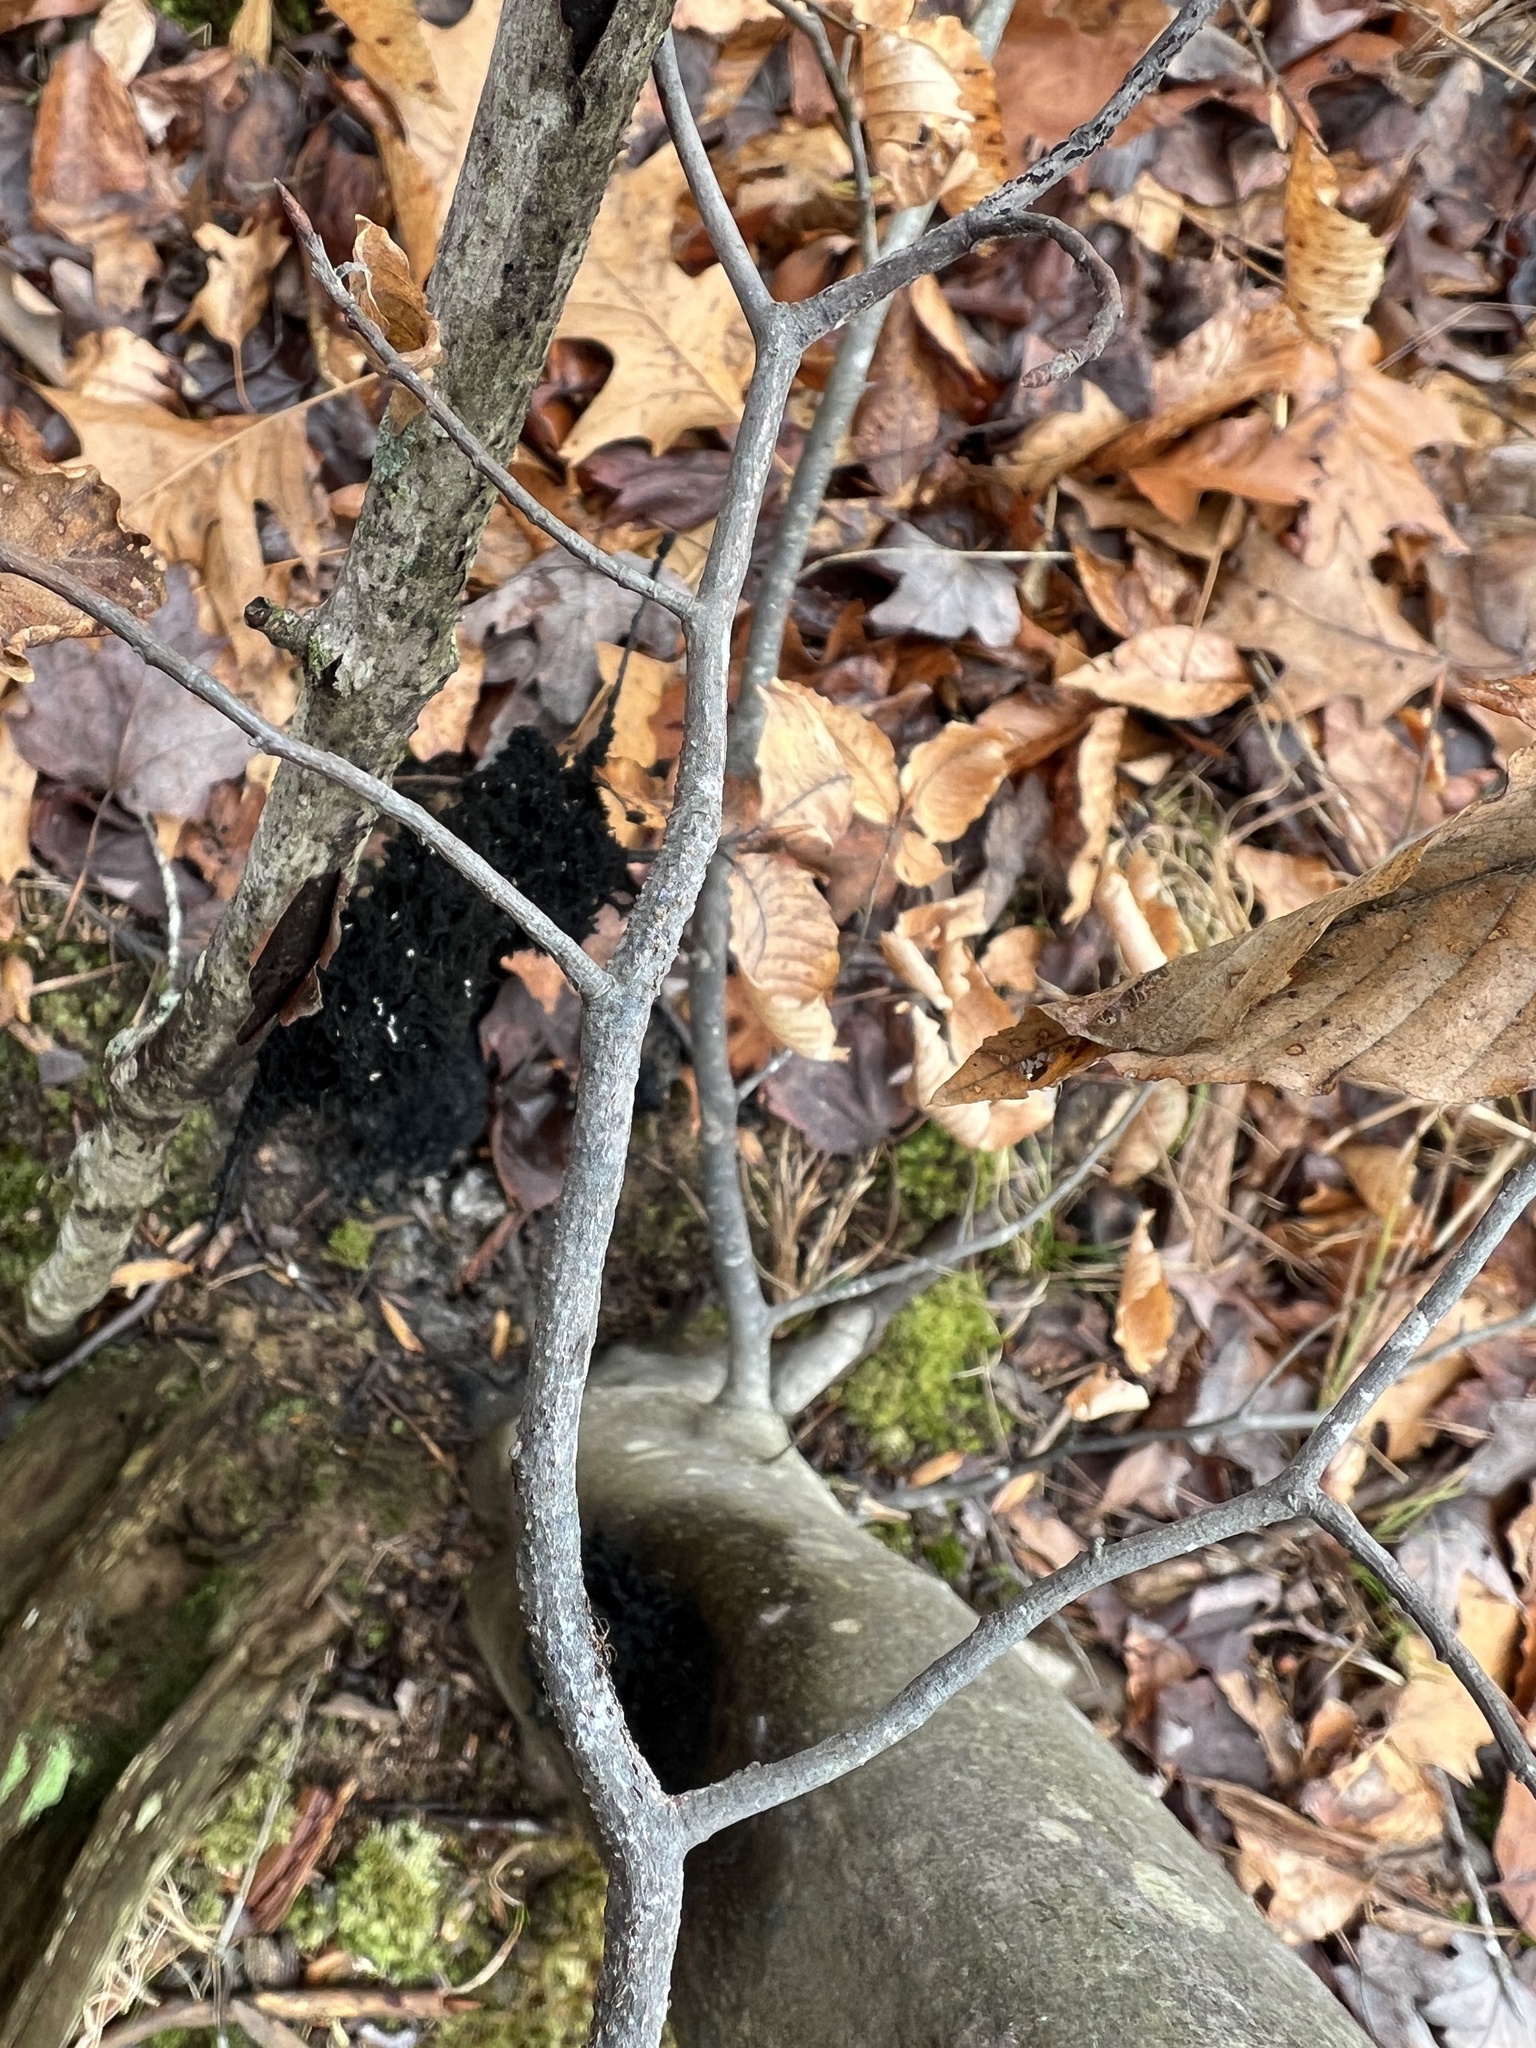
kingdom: Fungi
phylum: Ascomycota
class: Dothideomycetes
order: Capnodiales
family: Capnodiaceae
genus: Scorias
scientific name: Scorias spongiosa
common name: Black sooty mold
